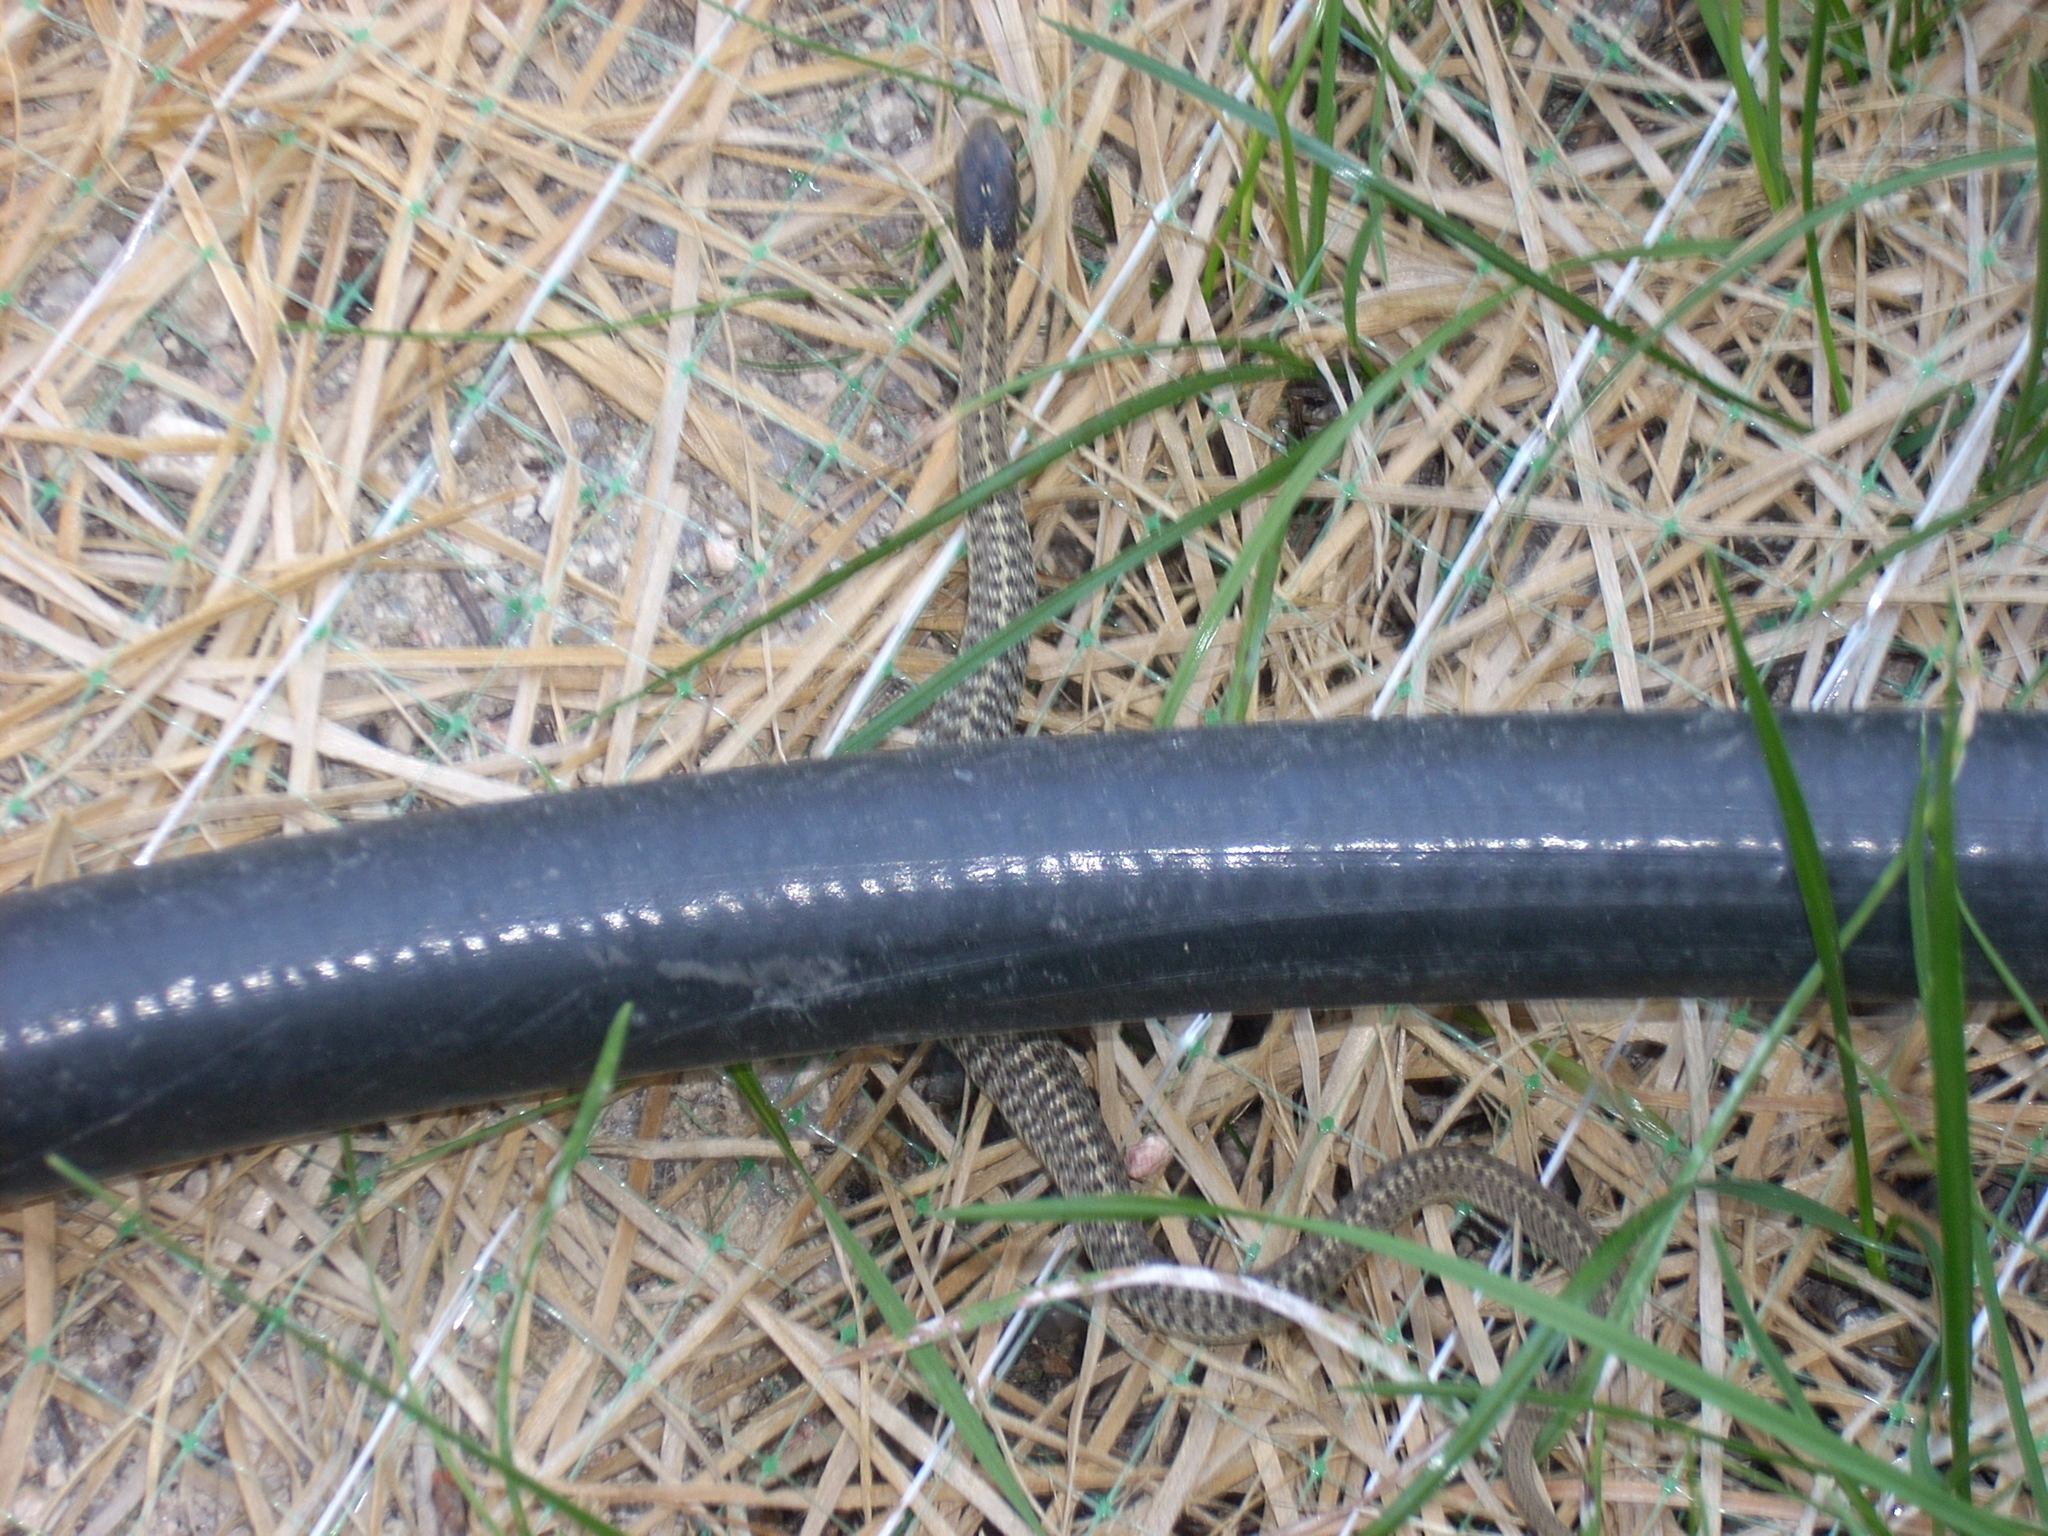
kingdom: Animalia
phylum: Chordata
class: Squamata
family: Colubridae
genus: Thamnophis
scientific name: Thamnophis elegans
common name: Western terrestrial garter snake
